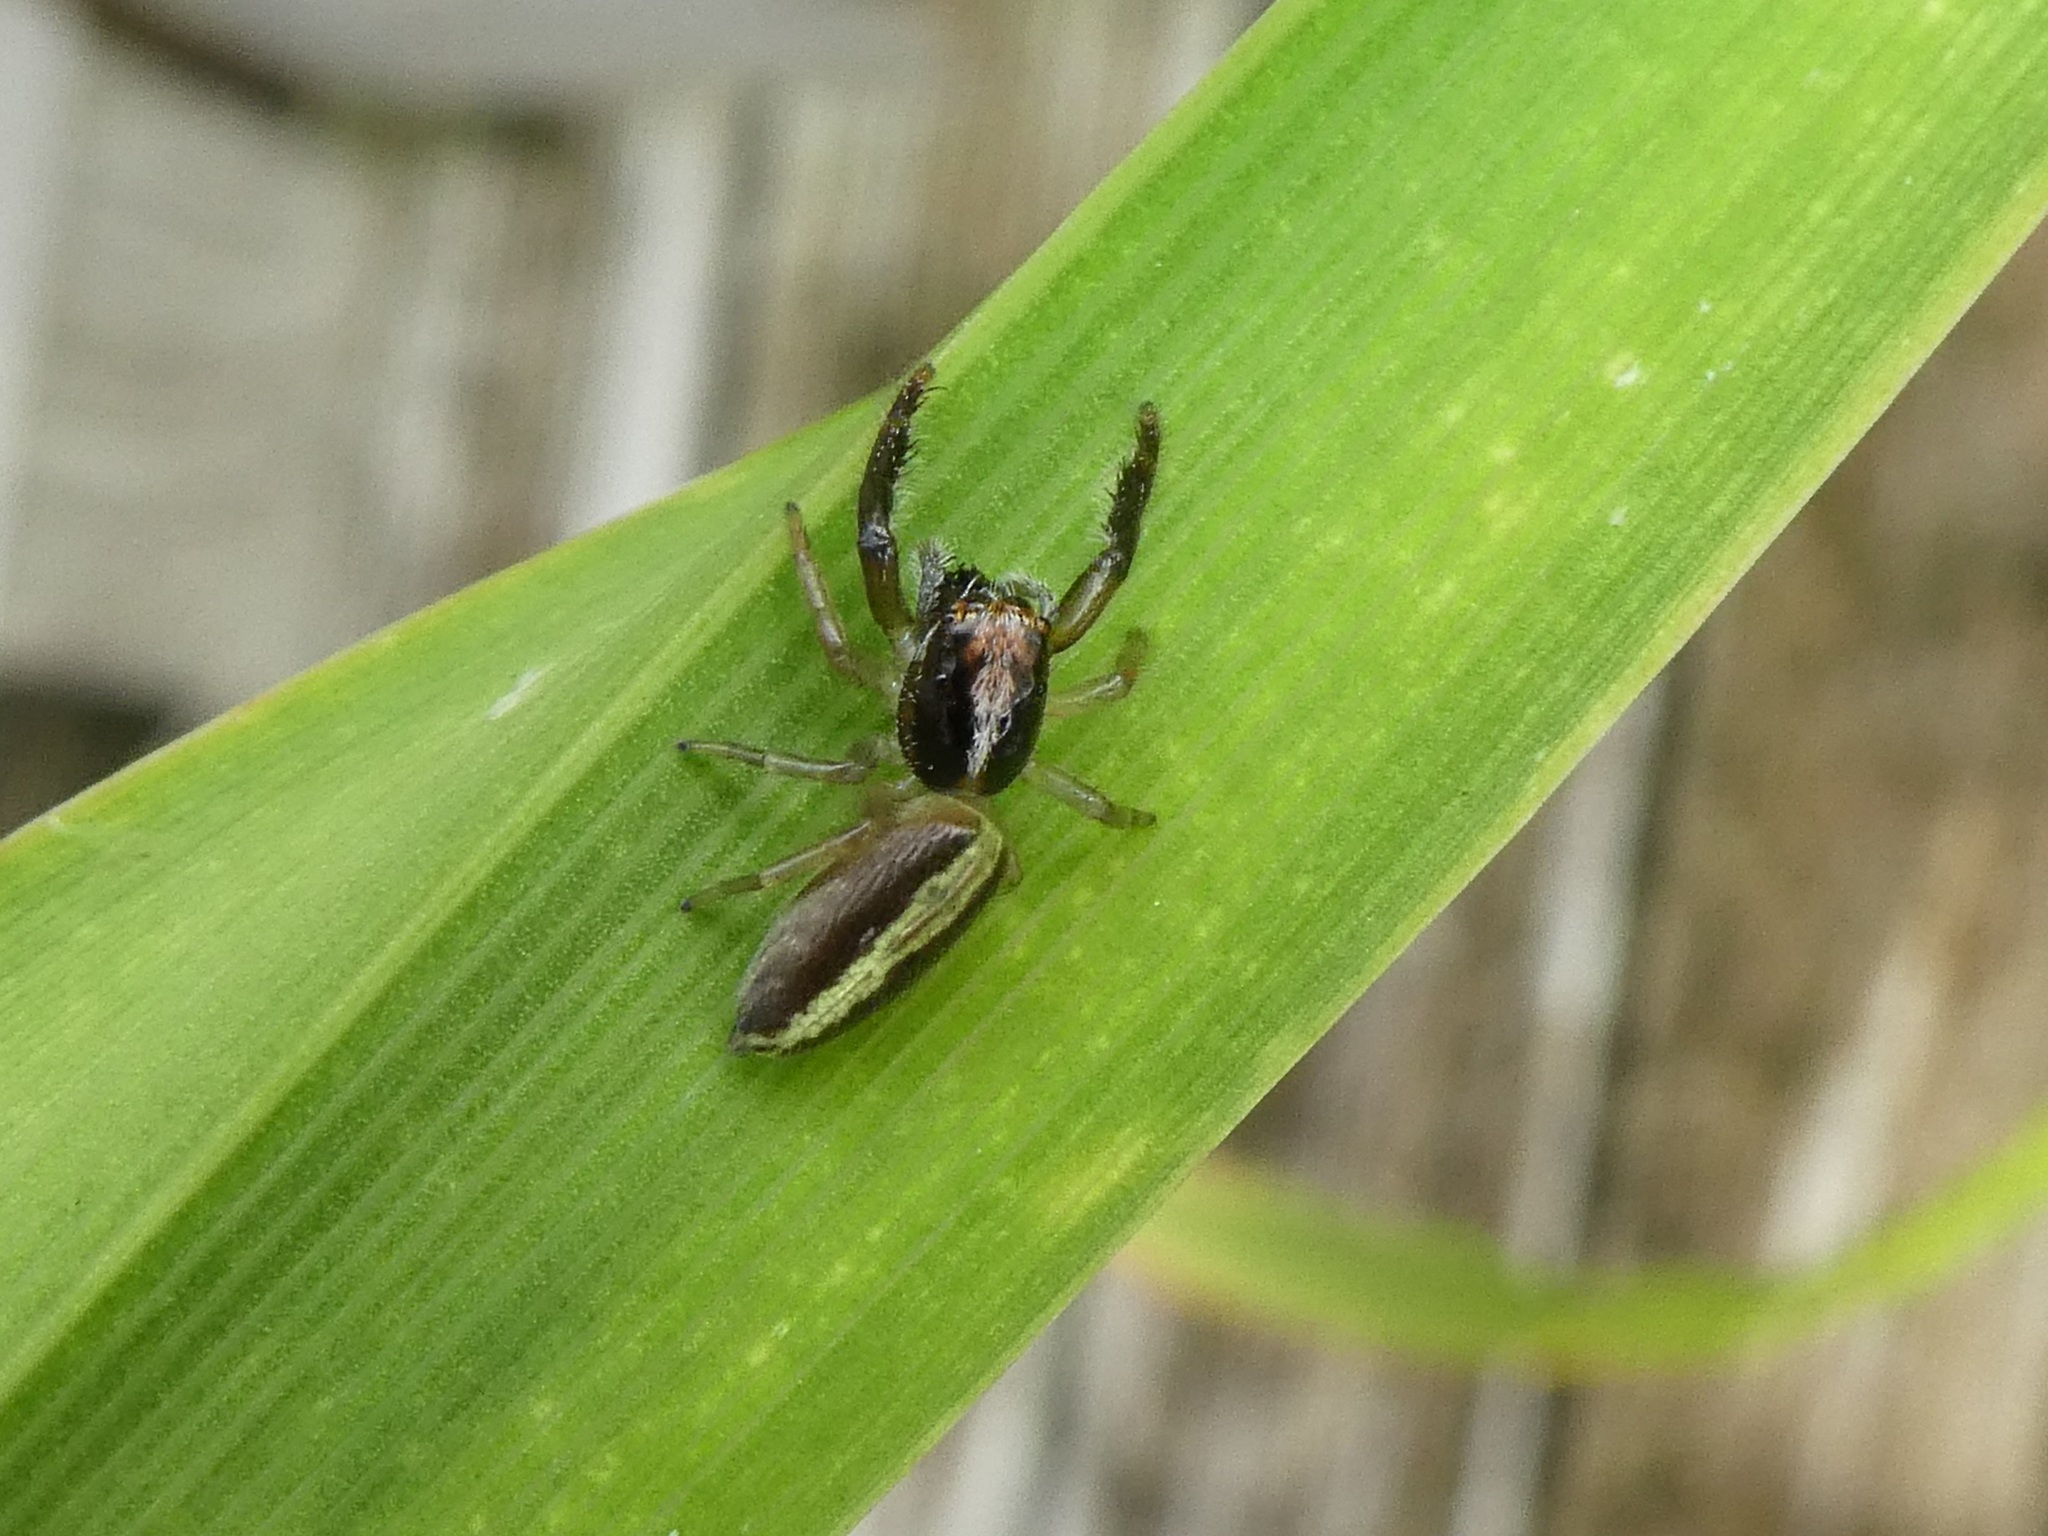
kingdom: Animalia
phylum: Arthropoda
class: Arachnida
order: Araneae
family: Salticidae
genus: Trite
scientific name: Trite planiceps
